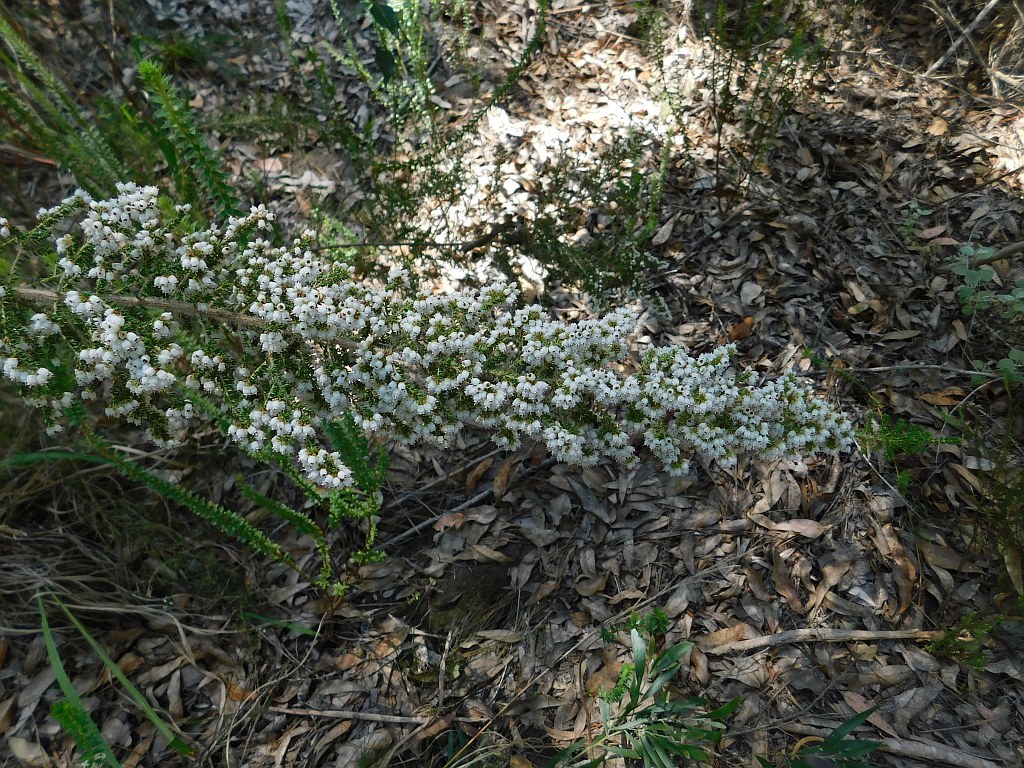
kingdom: Plantae
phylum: Tracheophyta
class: Magnoliopsida
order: Ericales
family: Ericaceae
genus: Erica
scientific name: Erica scabriuscula
